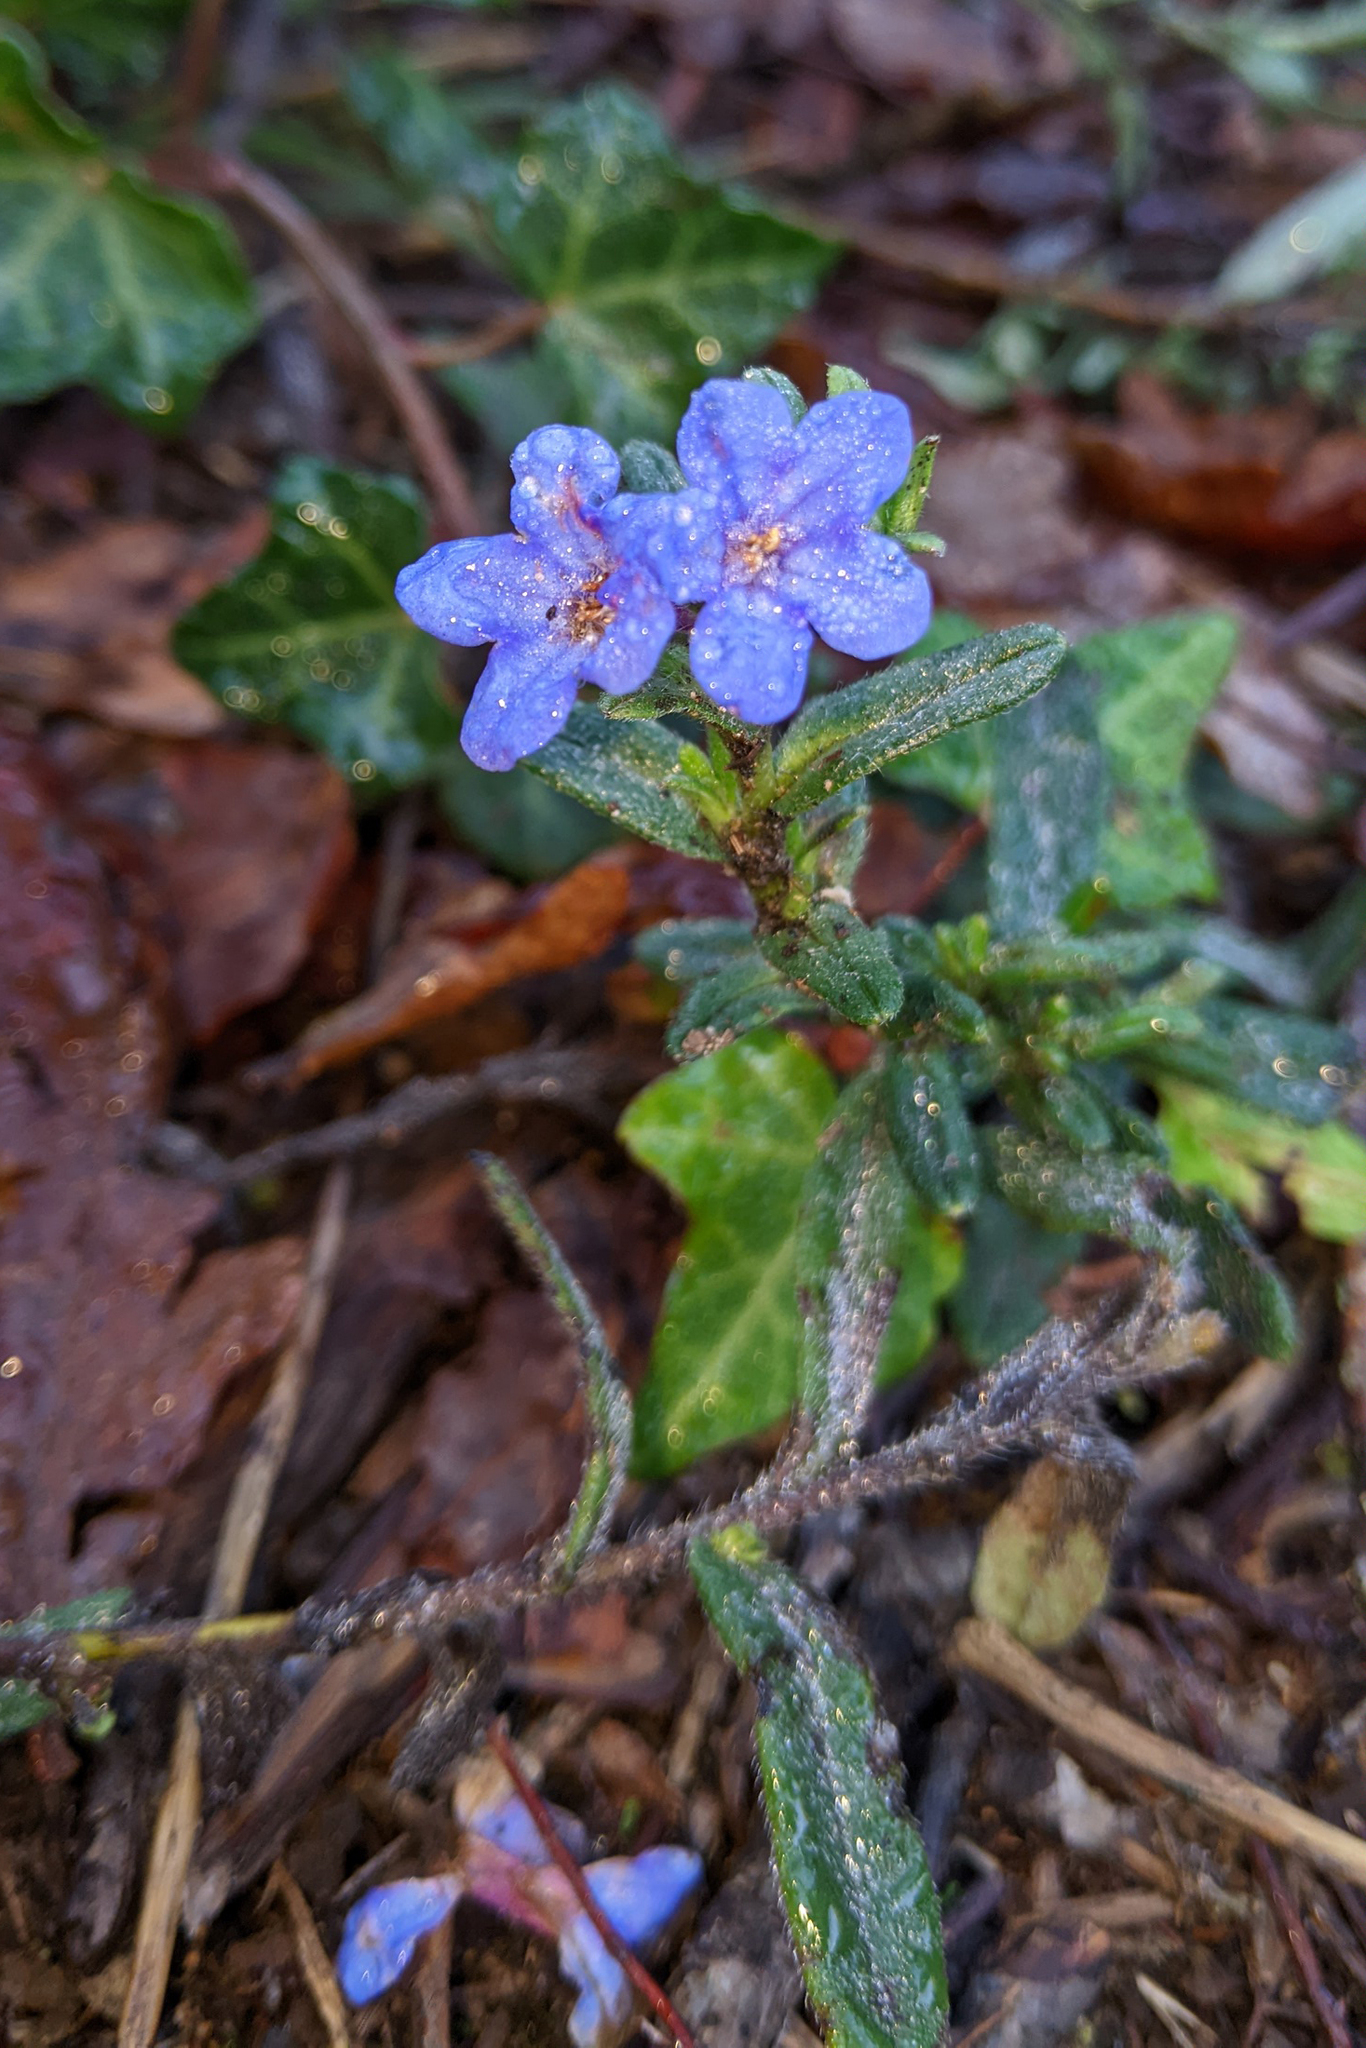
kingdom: Plantae
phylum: Tracheophyta
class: Magnoliopsida
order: Boraginales
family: Boraginaceae
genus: Glandora
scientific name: Glandora prostrata
